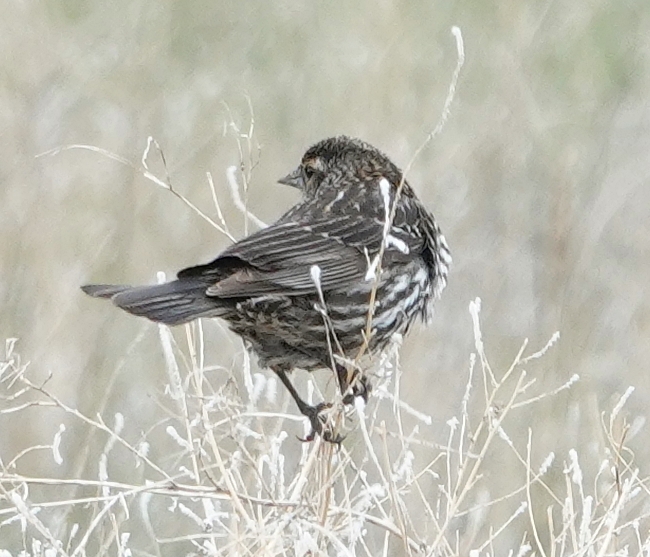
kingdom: Animalia
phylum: Chordata
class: Aves
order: Passeriformes
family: Icteridae
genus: Agelaius
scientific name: Agelaius phoeniceus
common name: Red-winged blackbird
